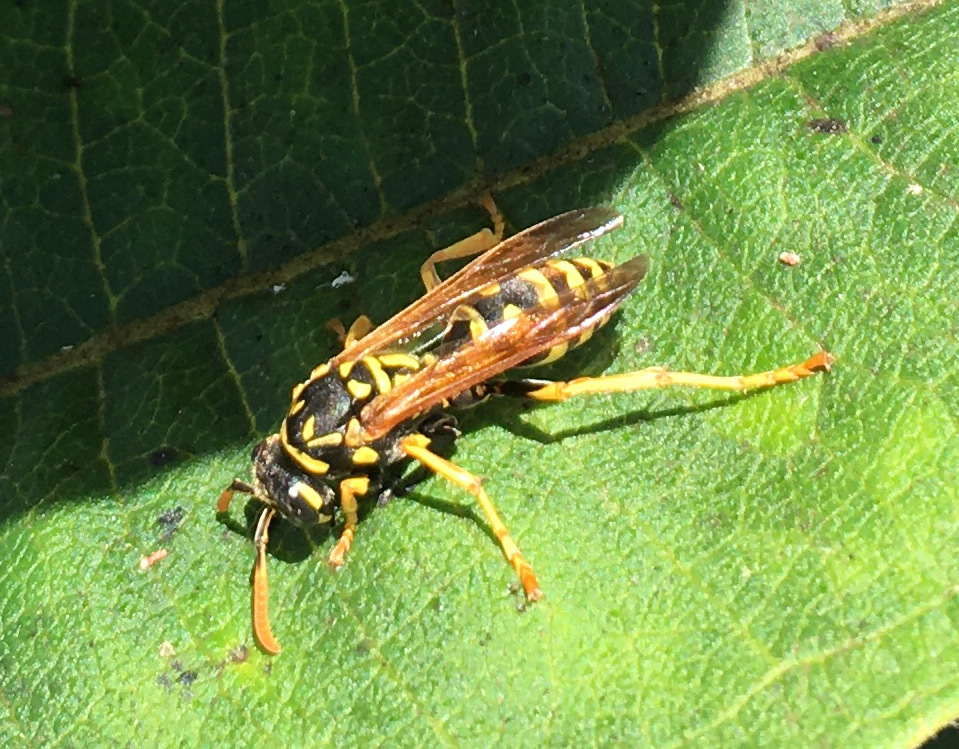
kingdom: Animalia
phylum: Arthropoda
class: Insecta
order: Hymenoptera
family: Eumenidae
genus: Polistes
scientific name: Polistes dominula
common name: Paper wasp
